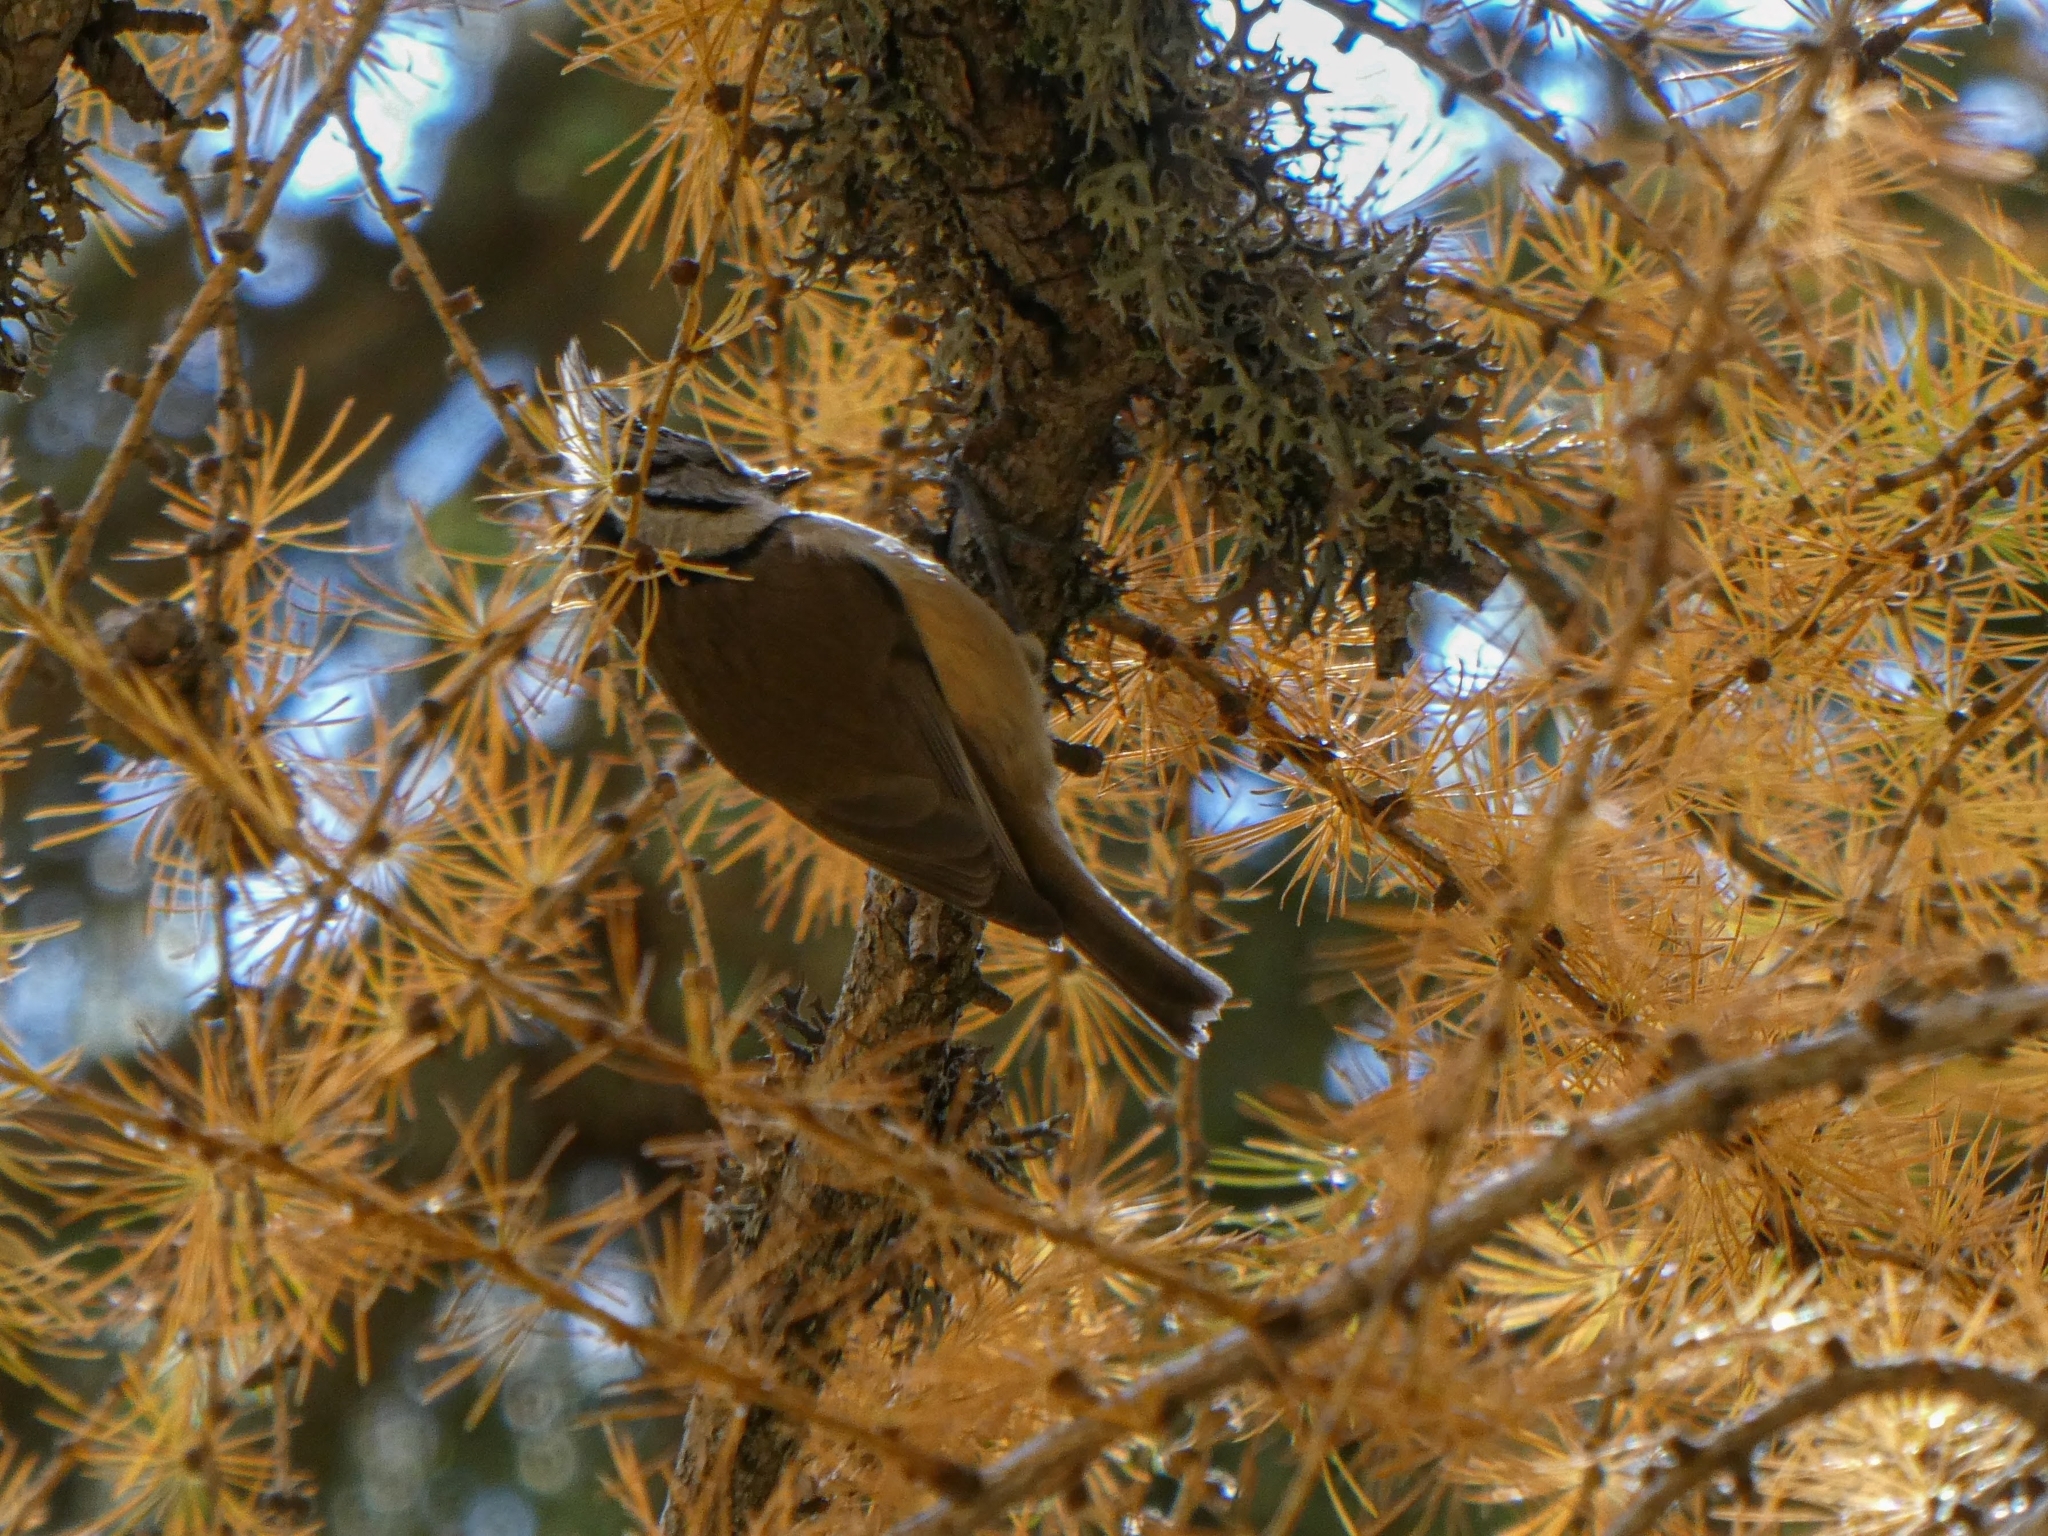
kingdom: Animalia
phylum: Chordata
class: Aves
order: Passeriformes
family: Paridae
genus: Lophophanes
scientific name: Lophophanes cristatus
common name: European crested tit
